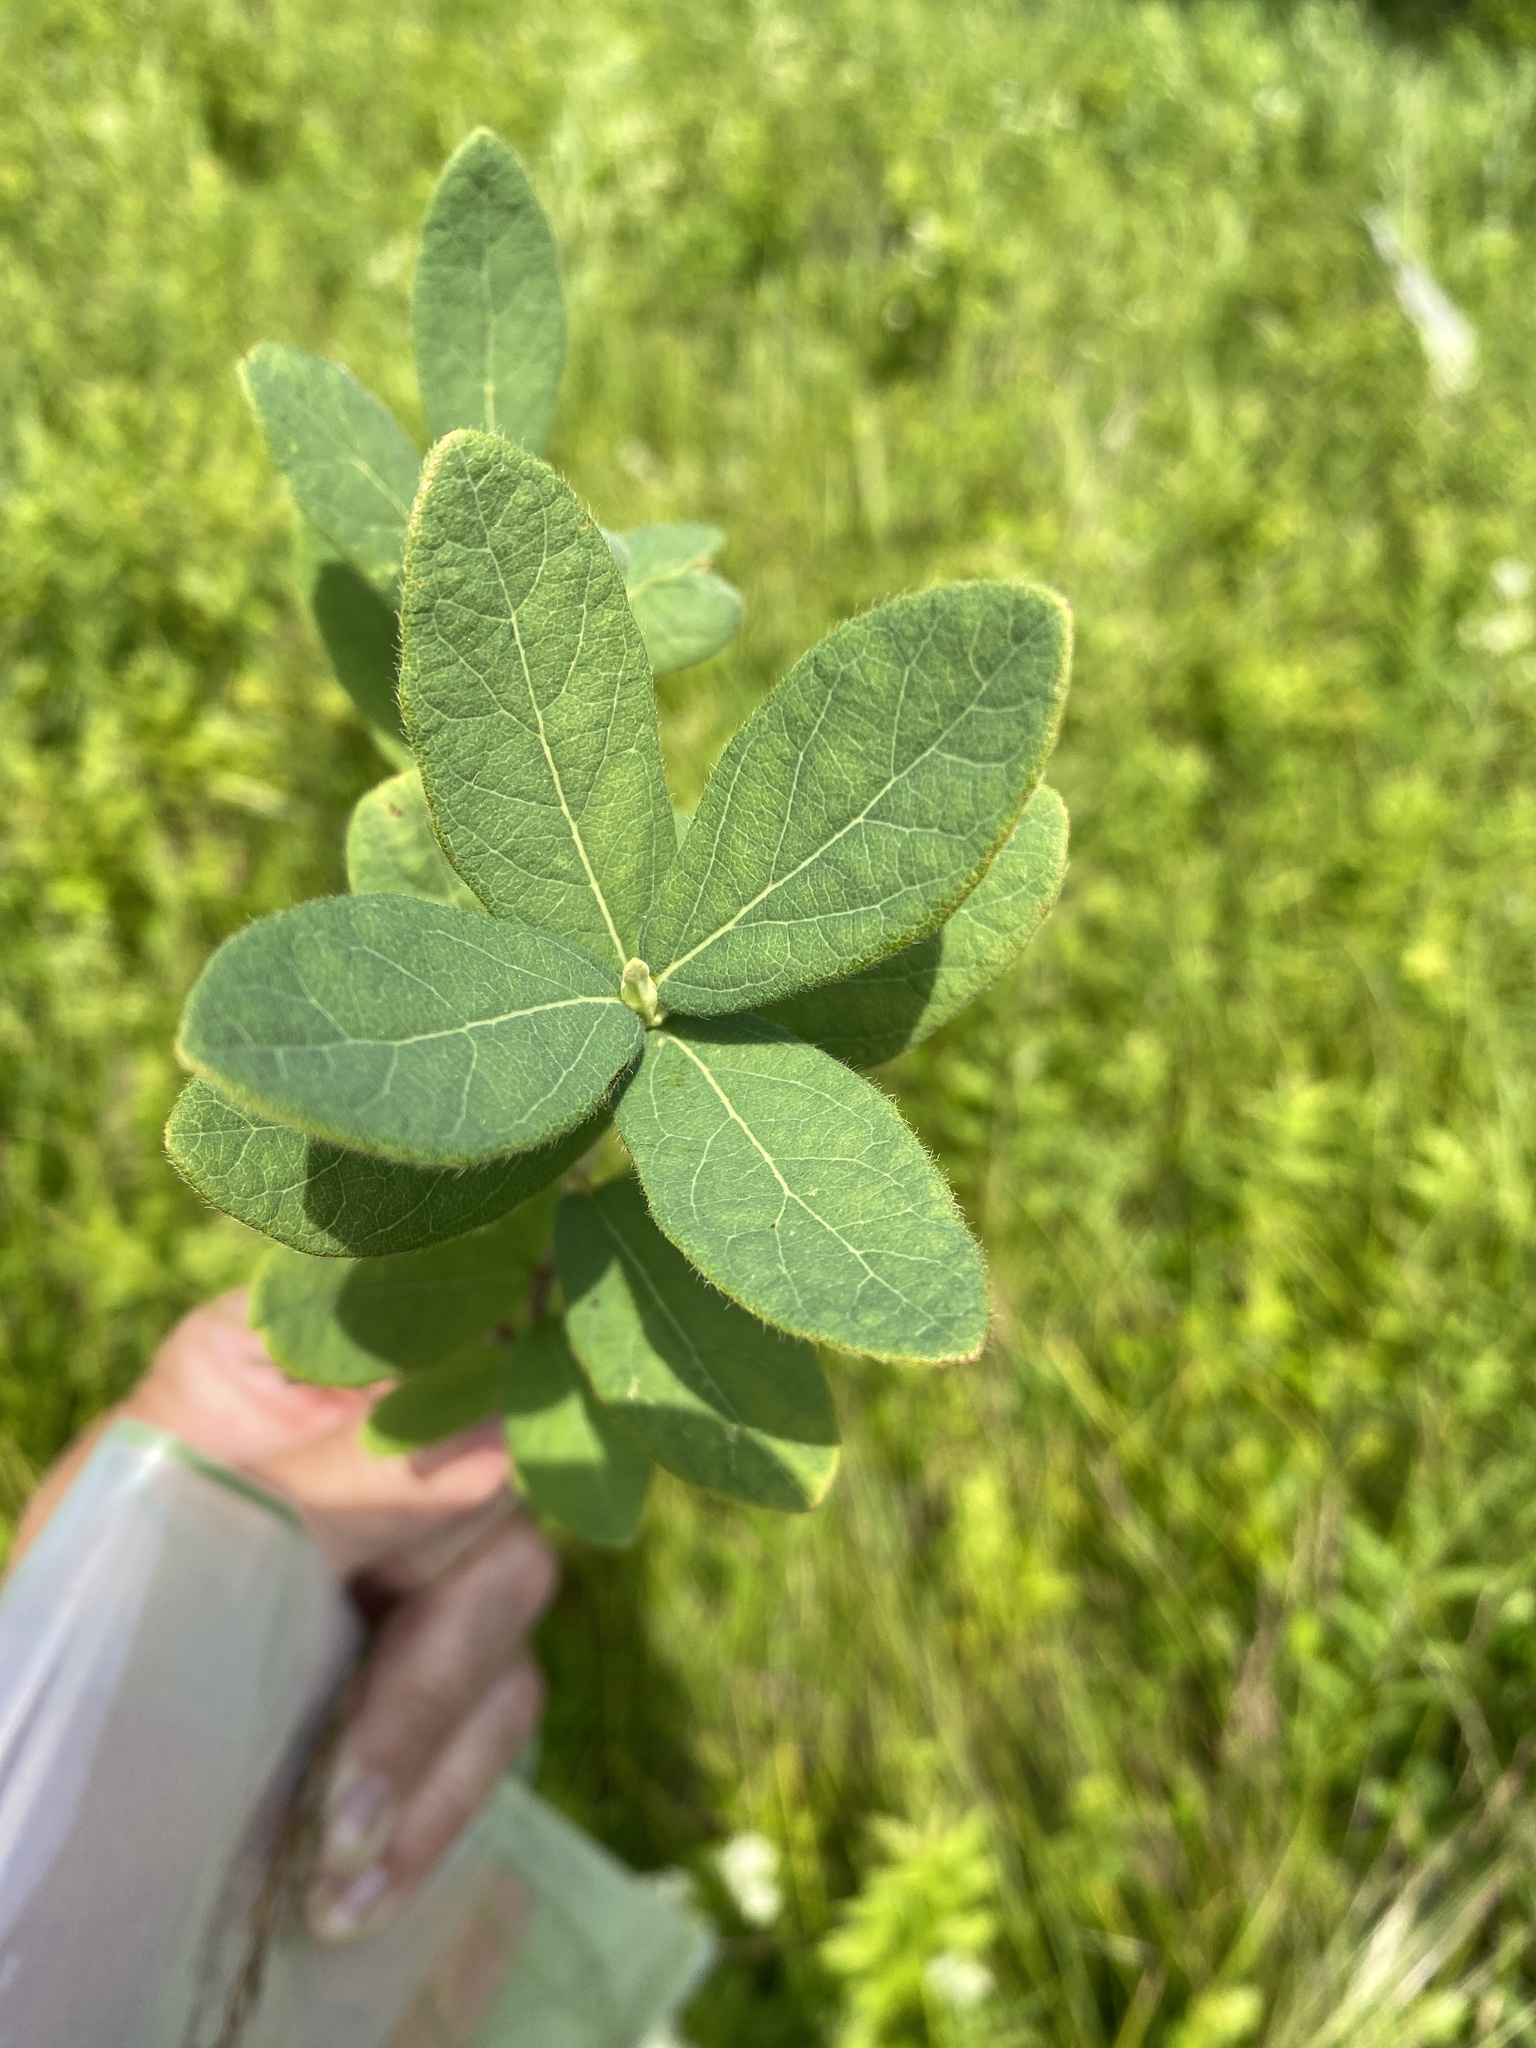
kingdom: Plantae
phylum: Tracheophyta
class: Magnoliopsida
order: Dipsacales
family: Caprifoliaceae
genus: Lonicera
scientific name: Lonicera villosa
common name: Mountain fly-honeysuckle
